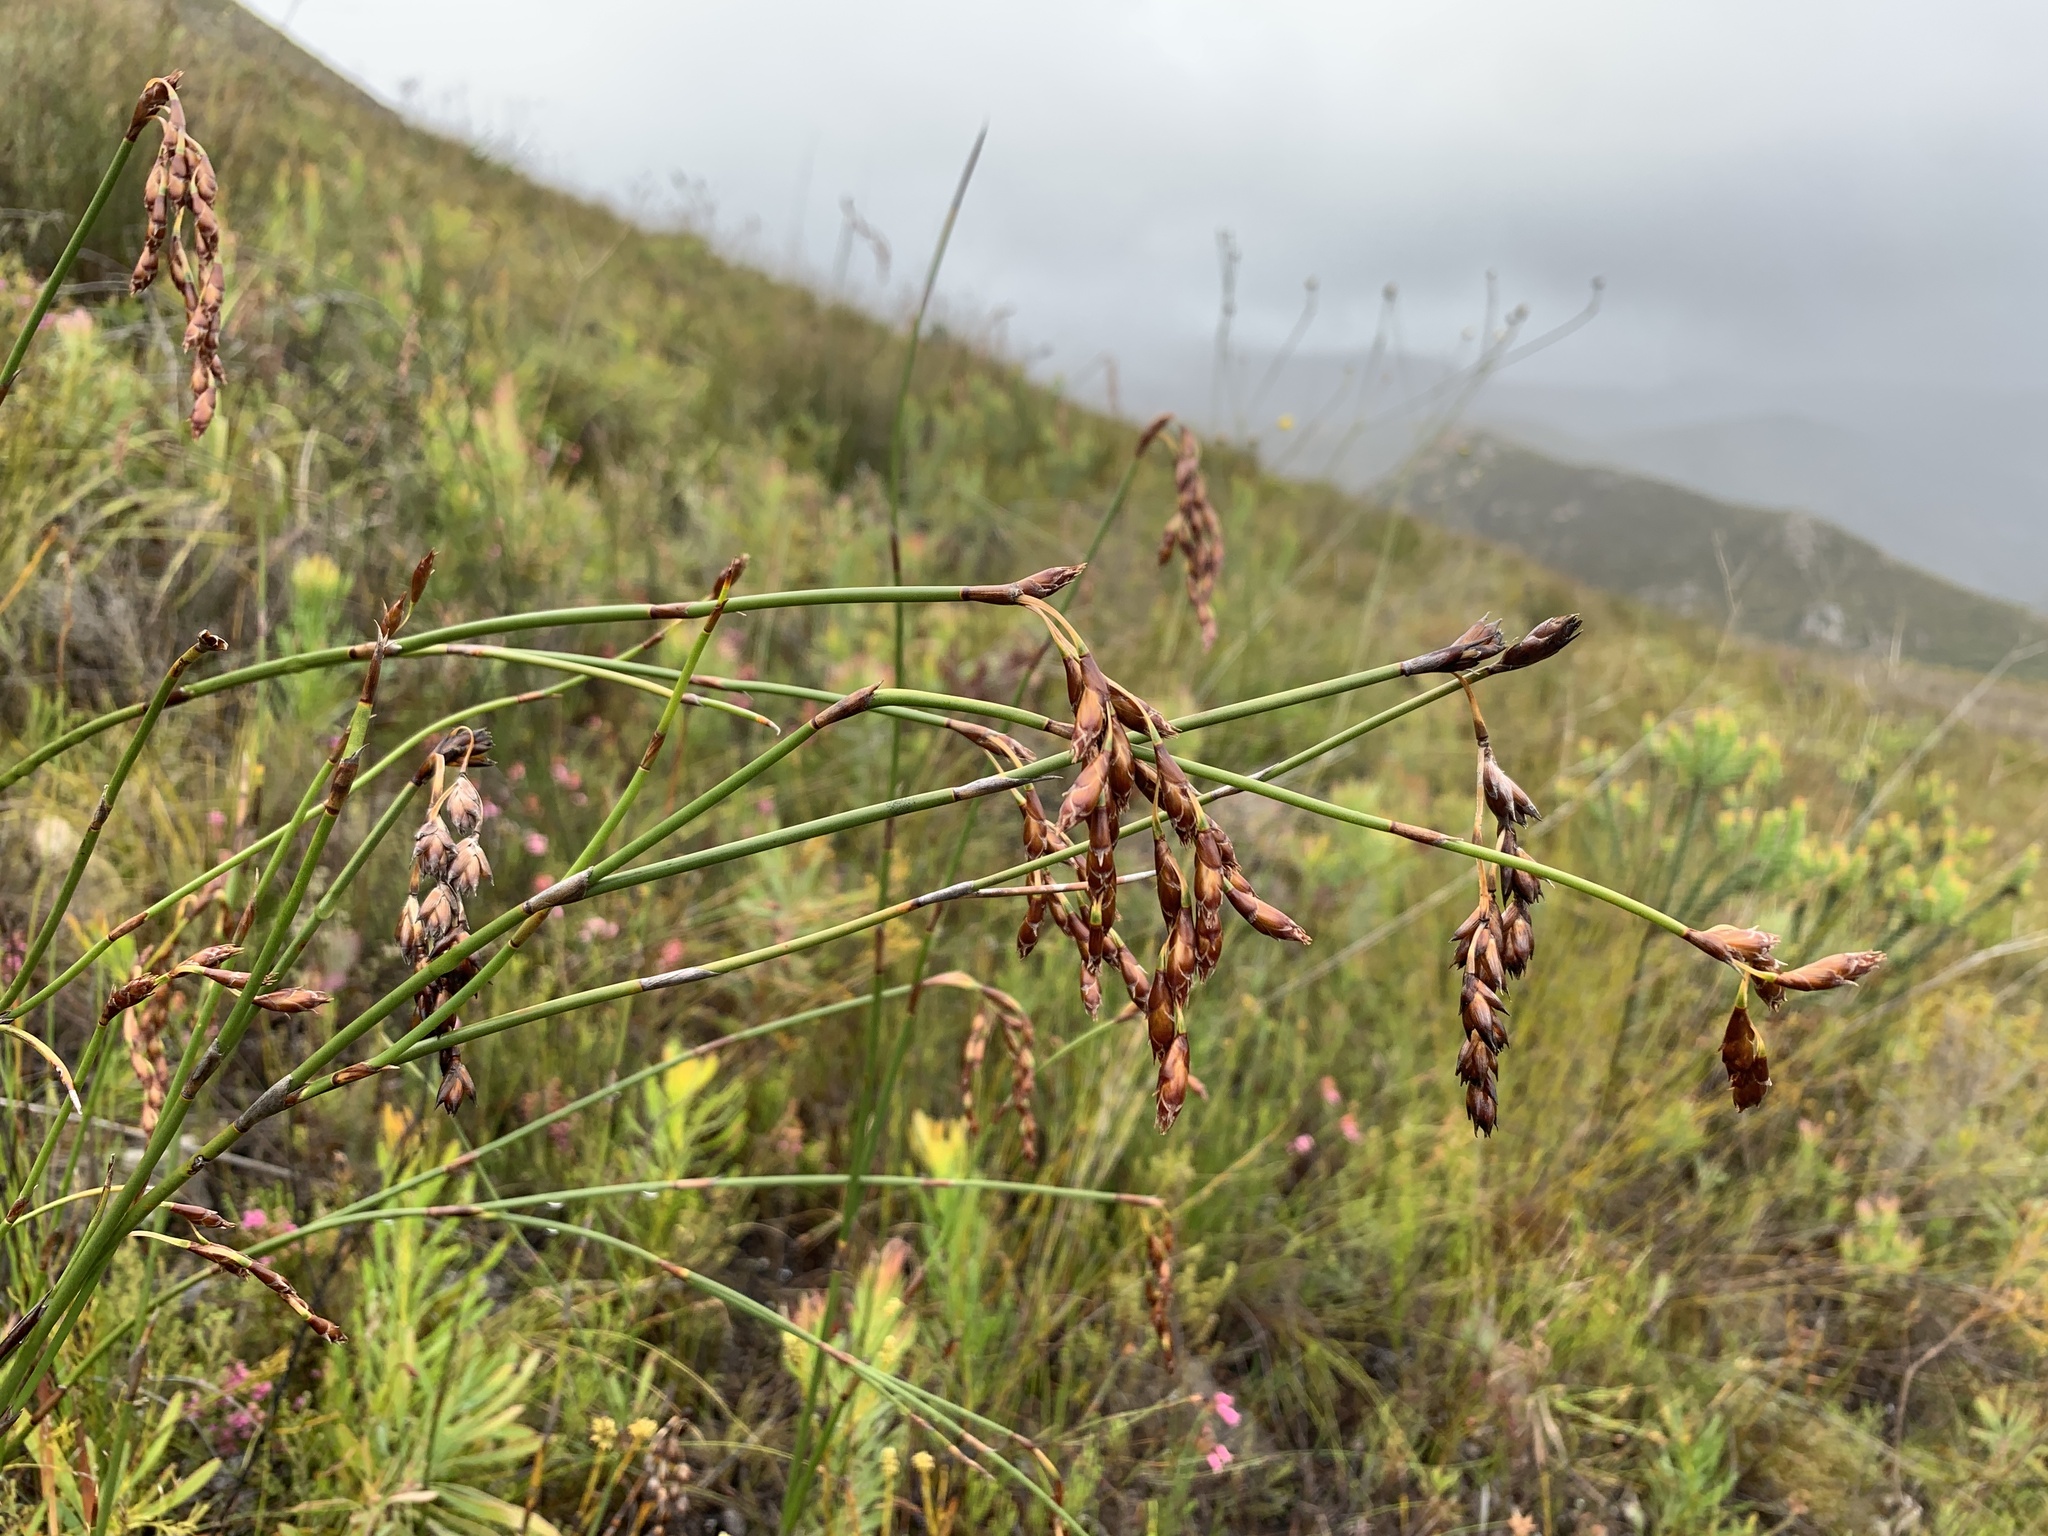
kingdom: Plantae
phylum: Tracheophyta
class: Liliopsida
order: Poales
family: Restionaceae
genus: Restio
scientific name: Restio egregius
